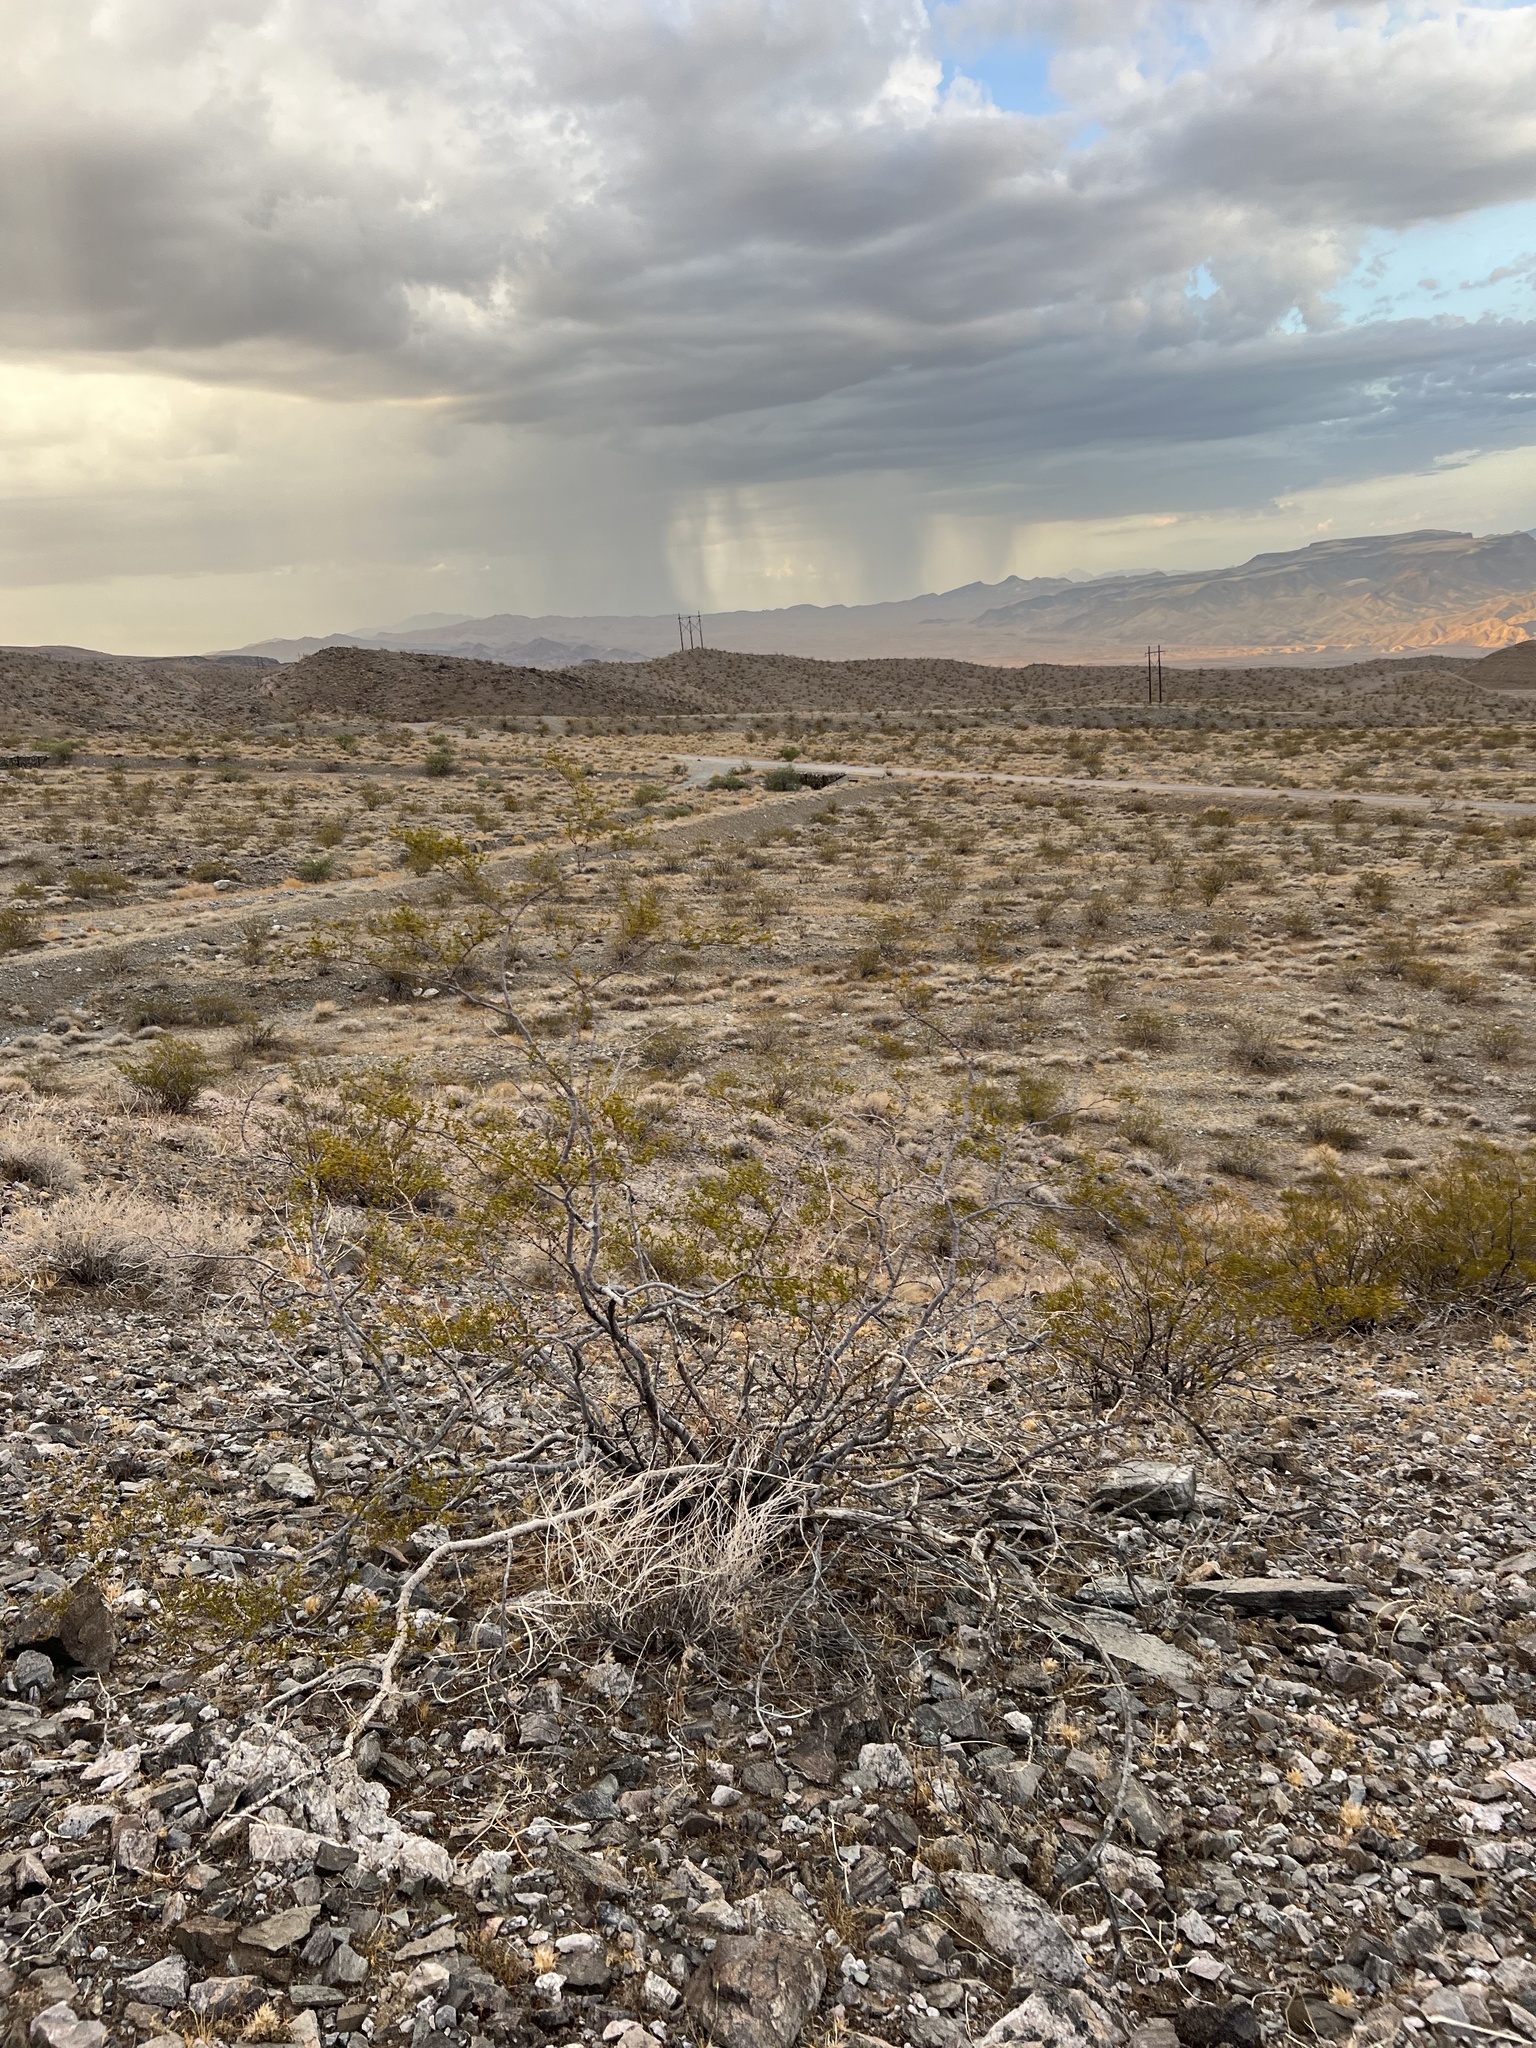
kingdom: Plantae
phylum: Tracheophyta
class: Magnoliopsida
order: Zygophyllales
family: Zygophyllaceae
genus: Larrea
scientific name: Larrea tridentata
